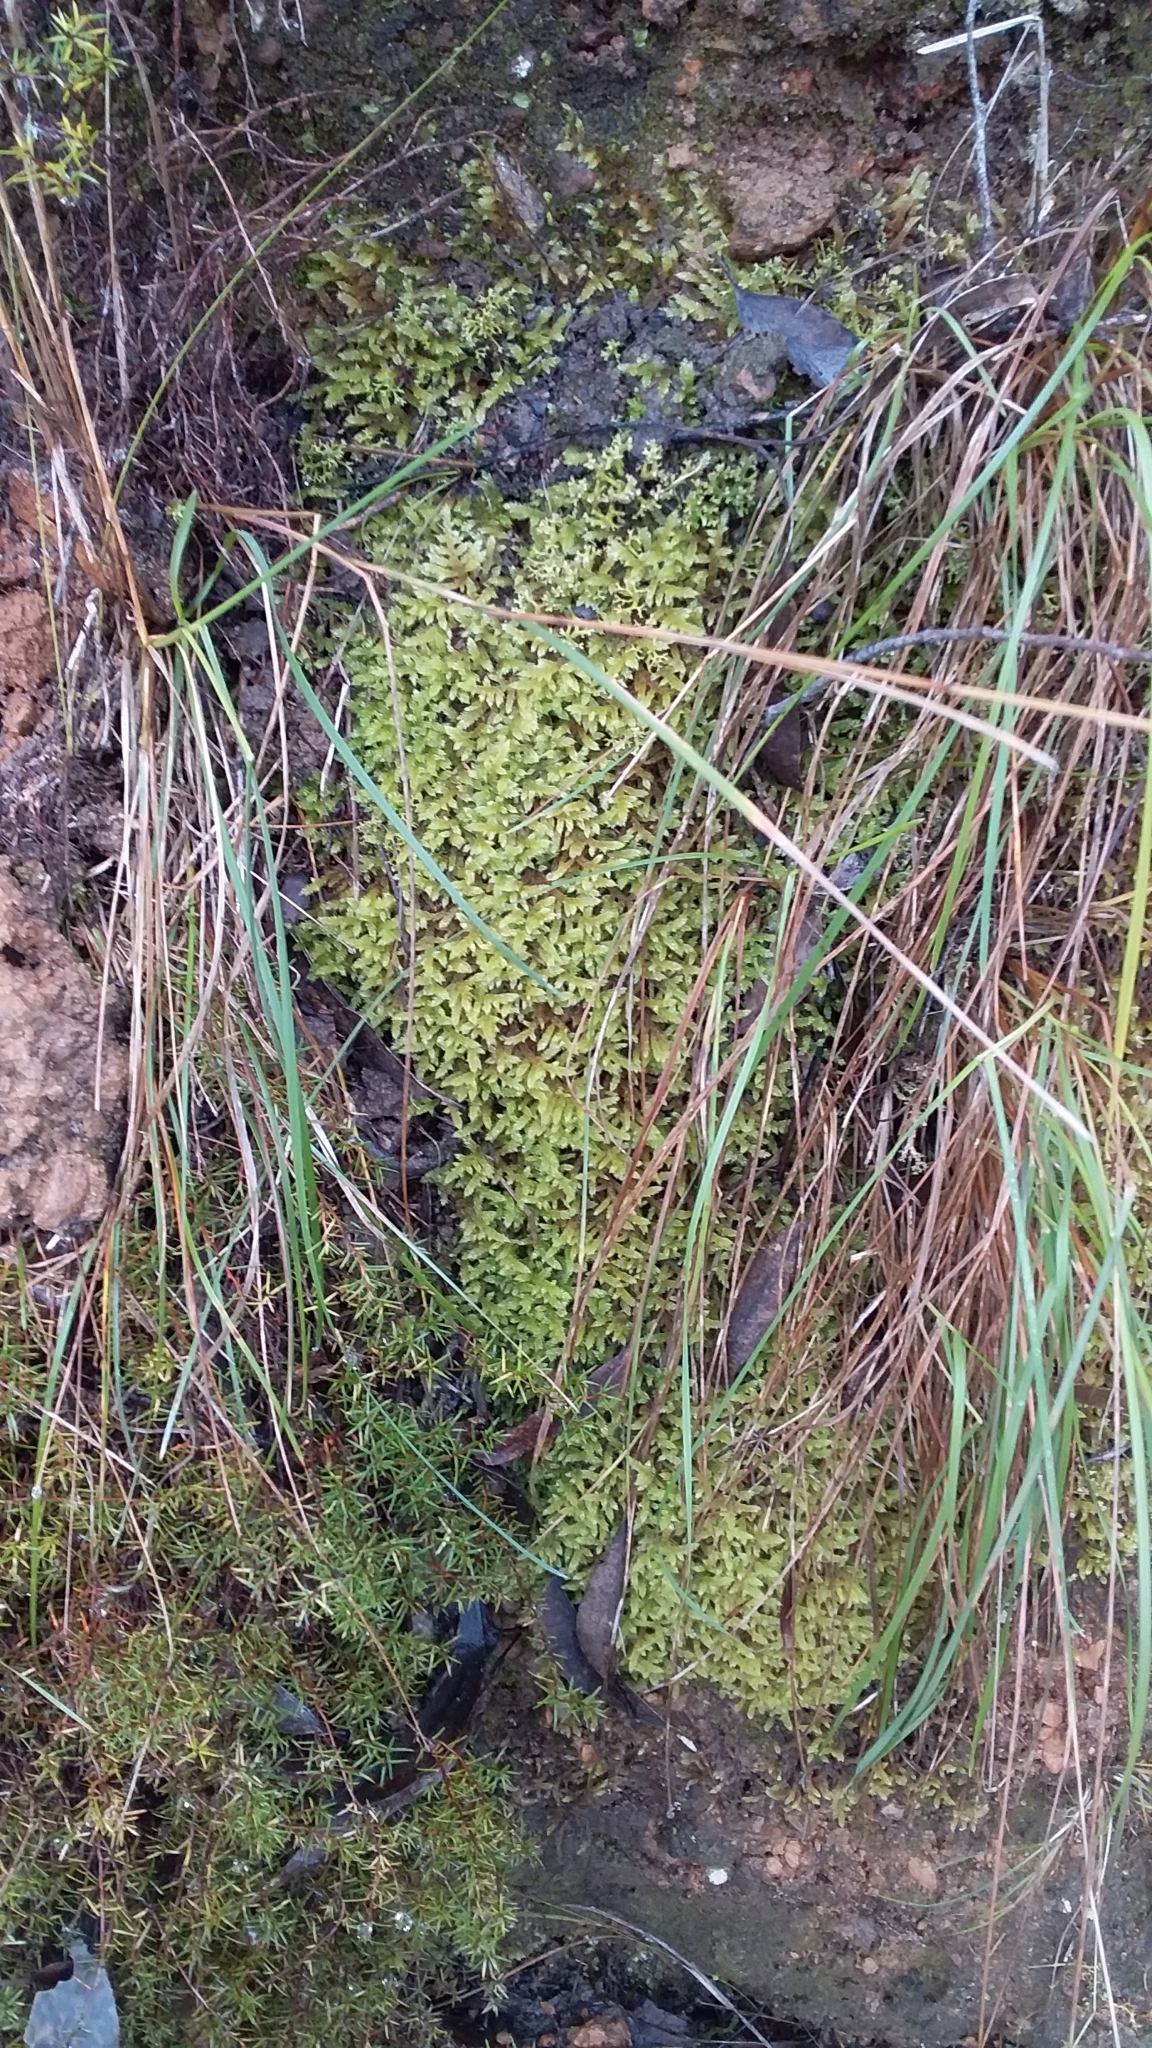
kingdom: Plantae
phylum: Bryophyta
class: Bryopsida
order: Hypnales
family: Hypnaceae
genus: Hypnum
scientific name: Hypnum cupressiforme
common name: Cypress-leaved plait-moss
